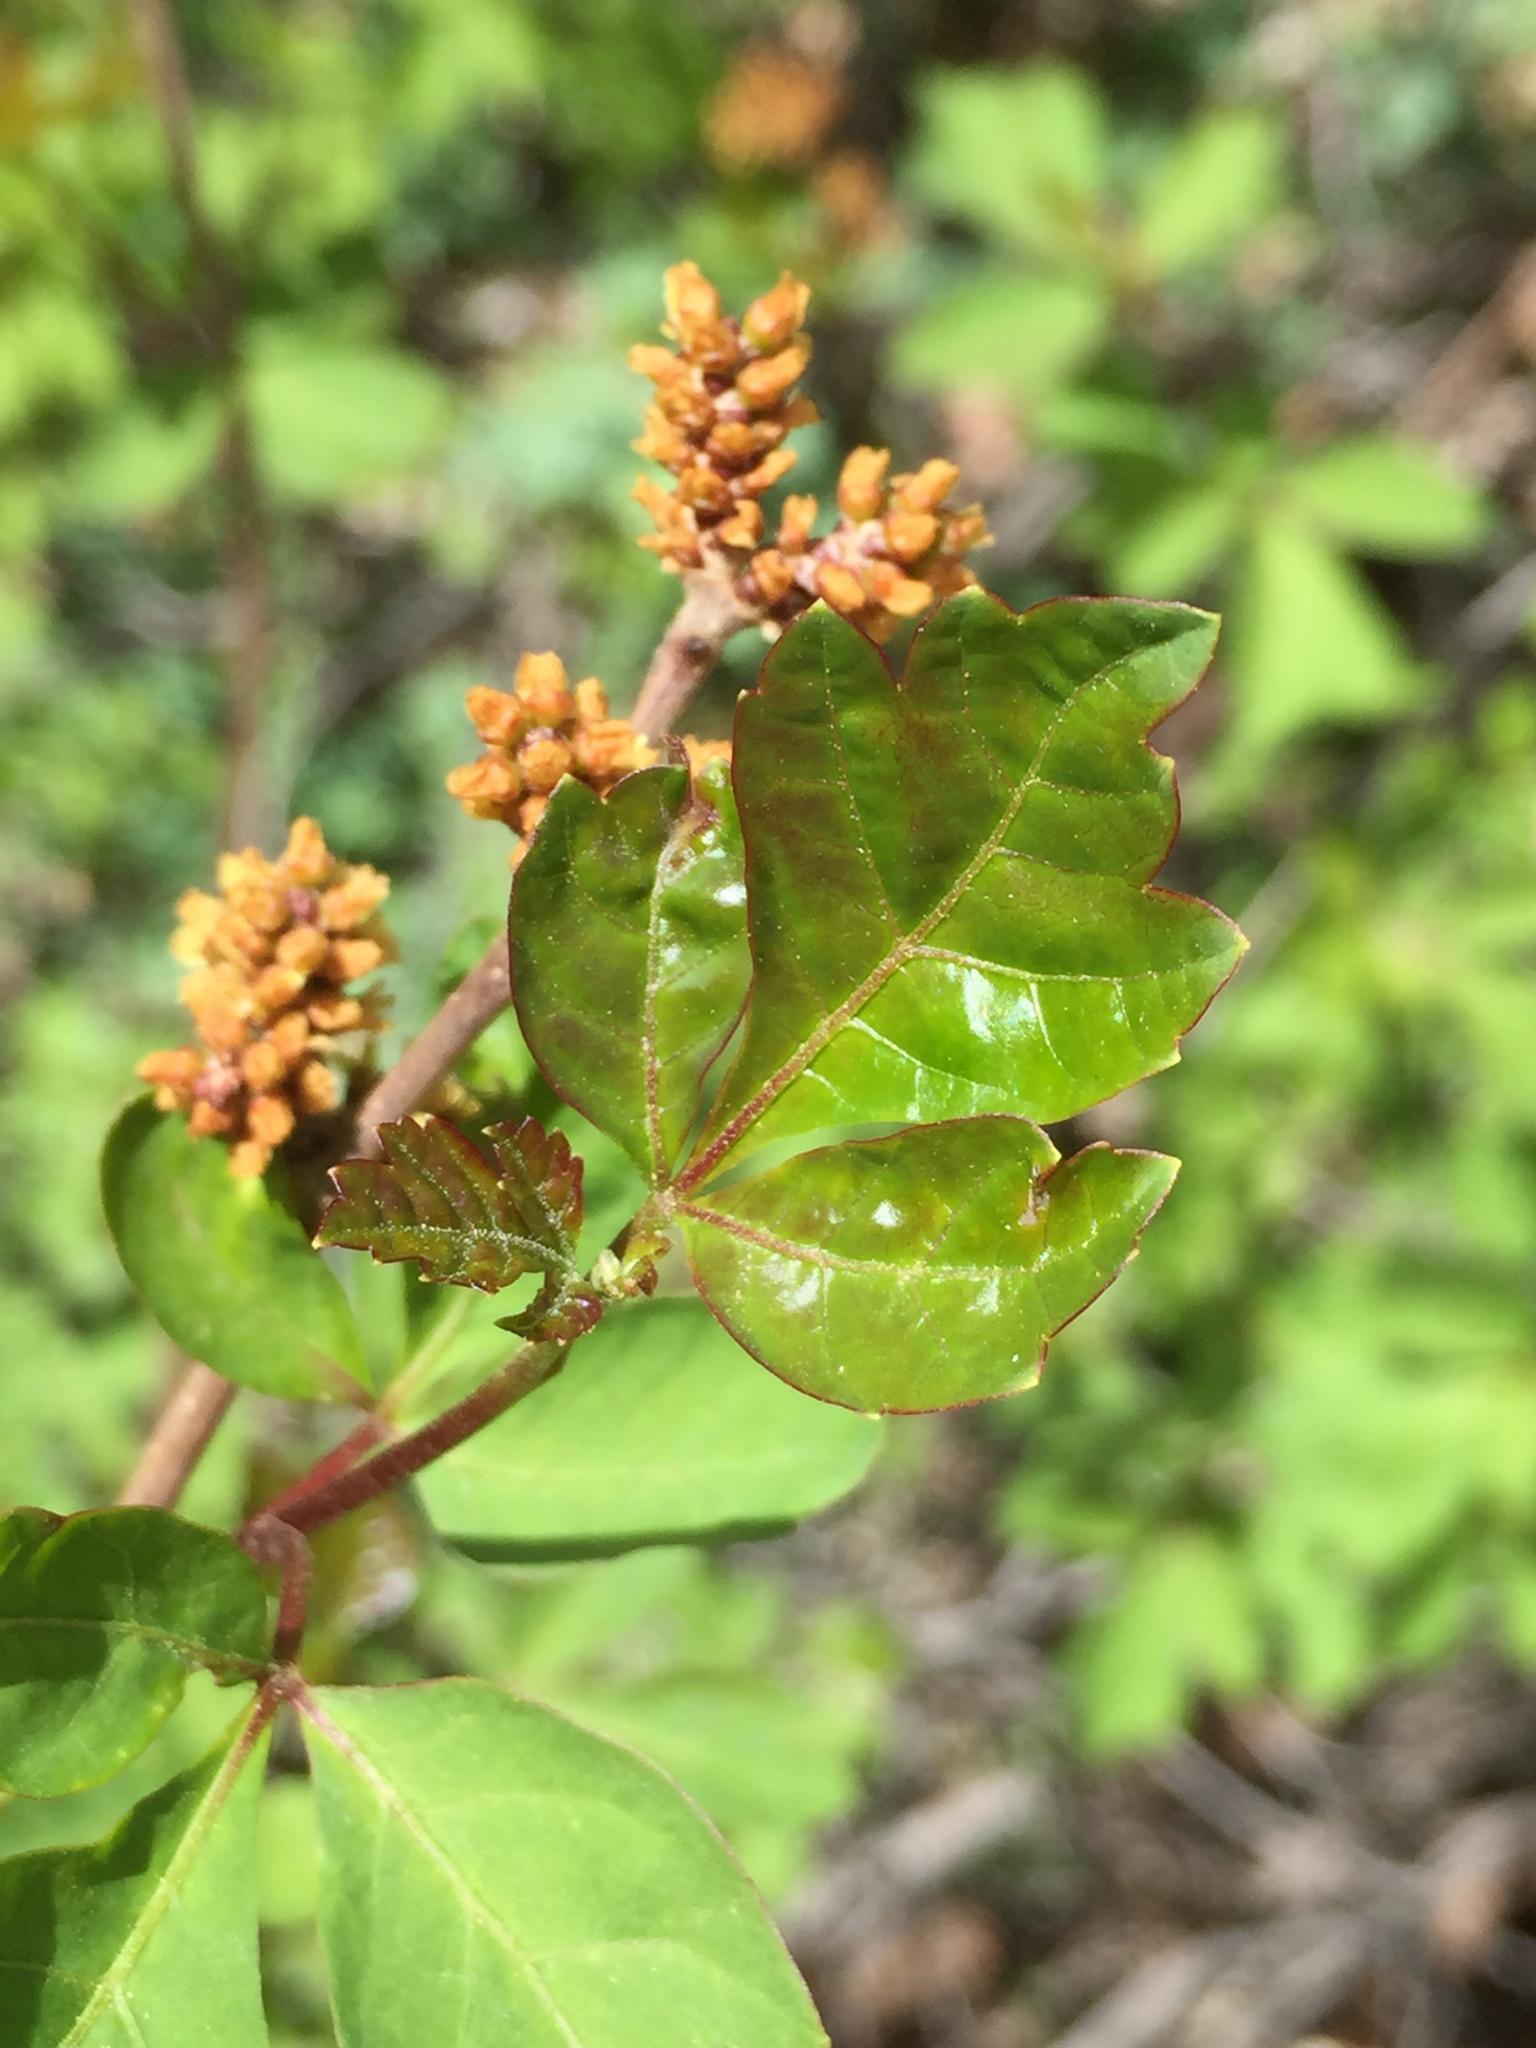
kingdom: Plantae
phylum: Tracheophyta
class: Magnoliopsida
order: Sapindales
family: Anacardiaceae
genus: Rhus
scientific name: Rhus aromatica
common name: Aromatic sumac
